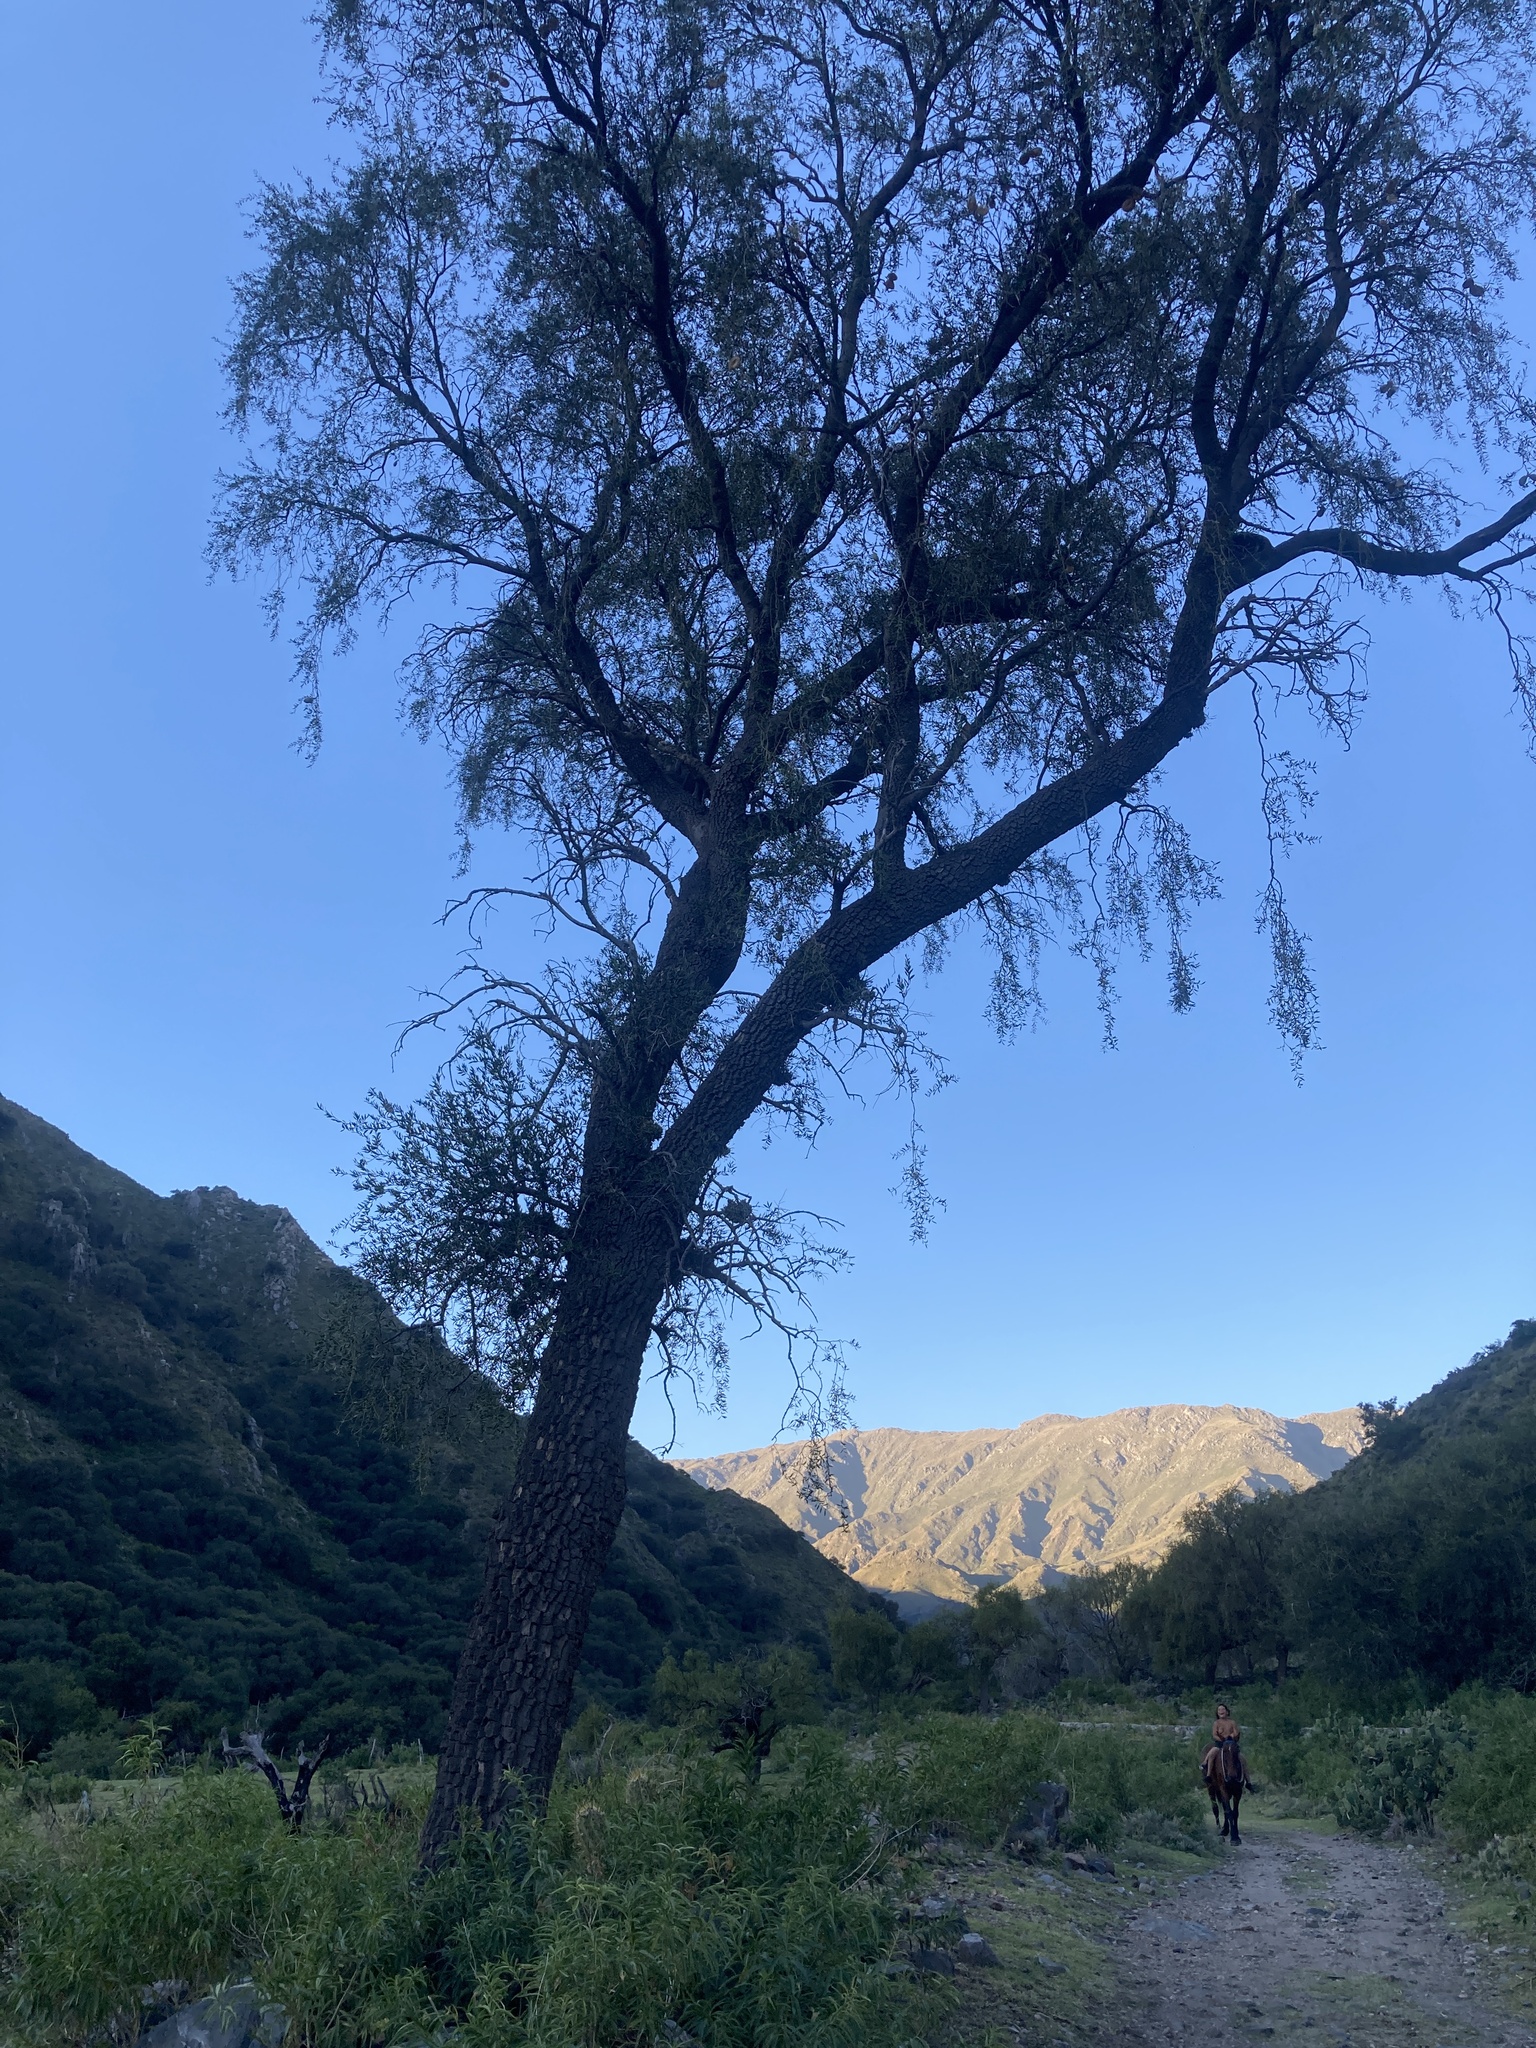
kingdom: Plantae
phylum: Tracheophyta
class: Magnoliopsida
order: Gentianales
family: Apocynaceae
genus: Aspidosperma
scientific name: Aspidosperma quebracho-blanco
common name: White quebracho
